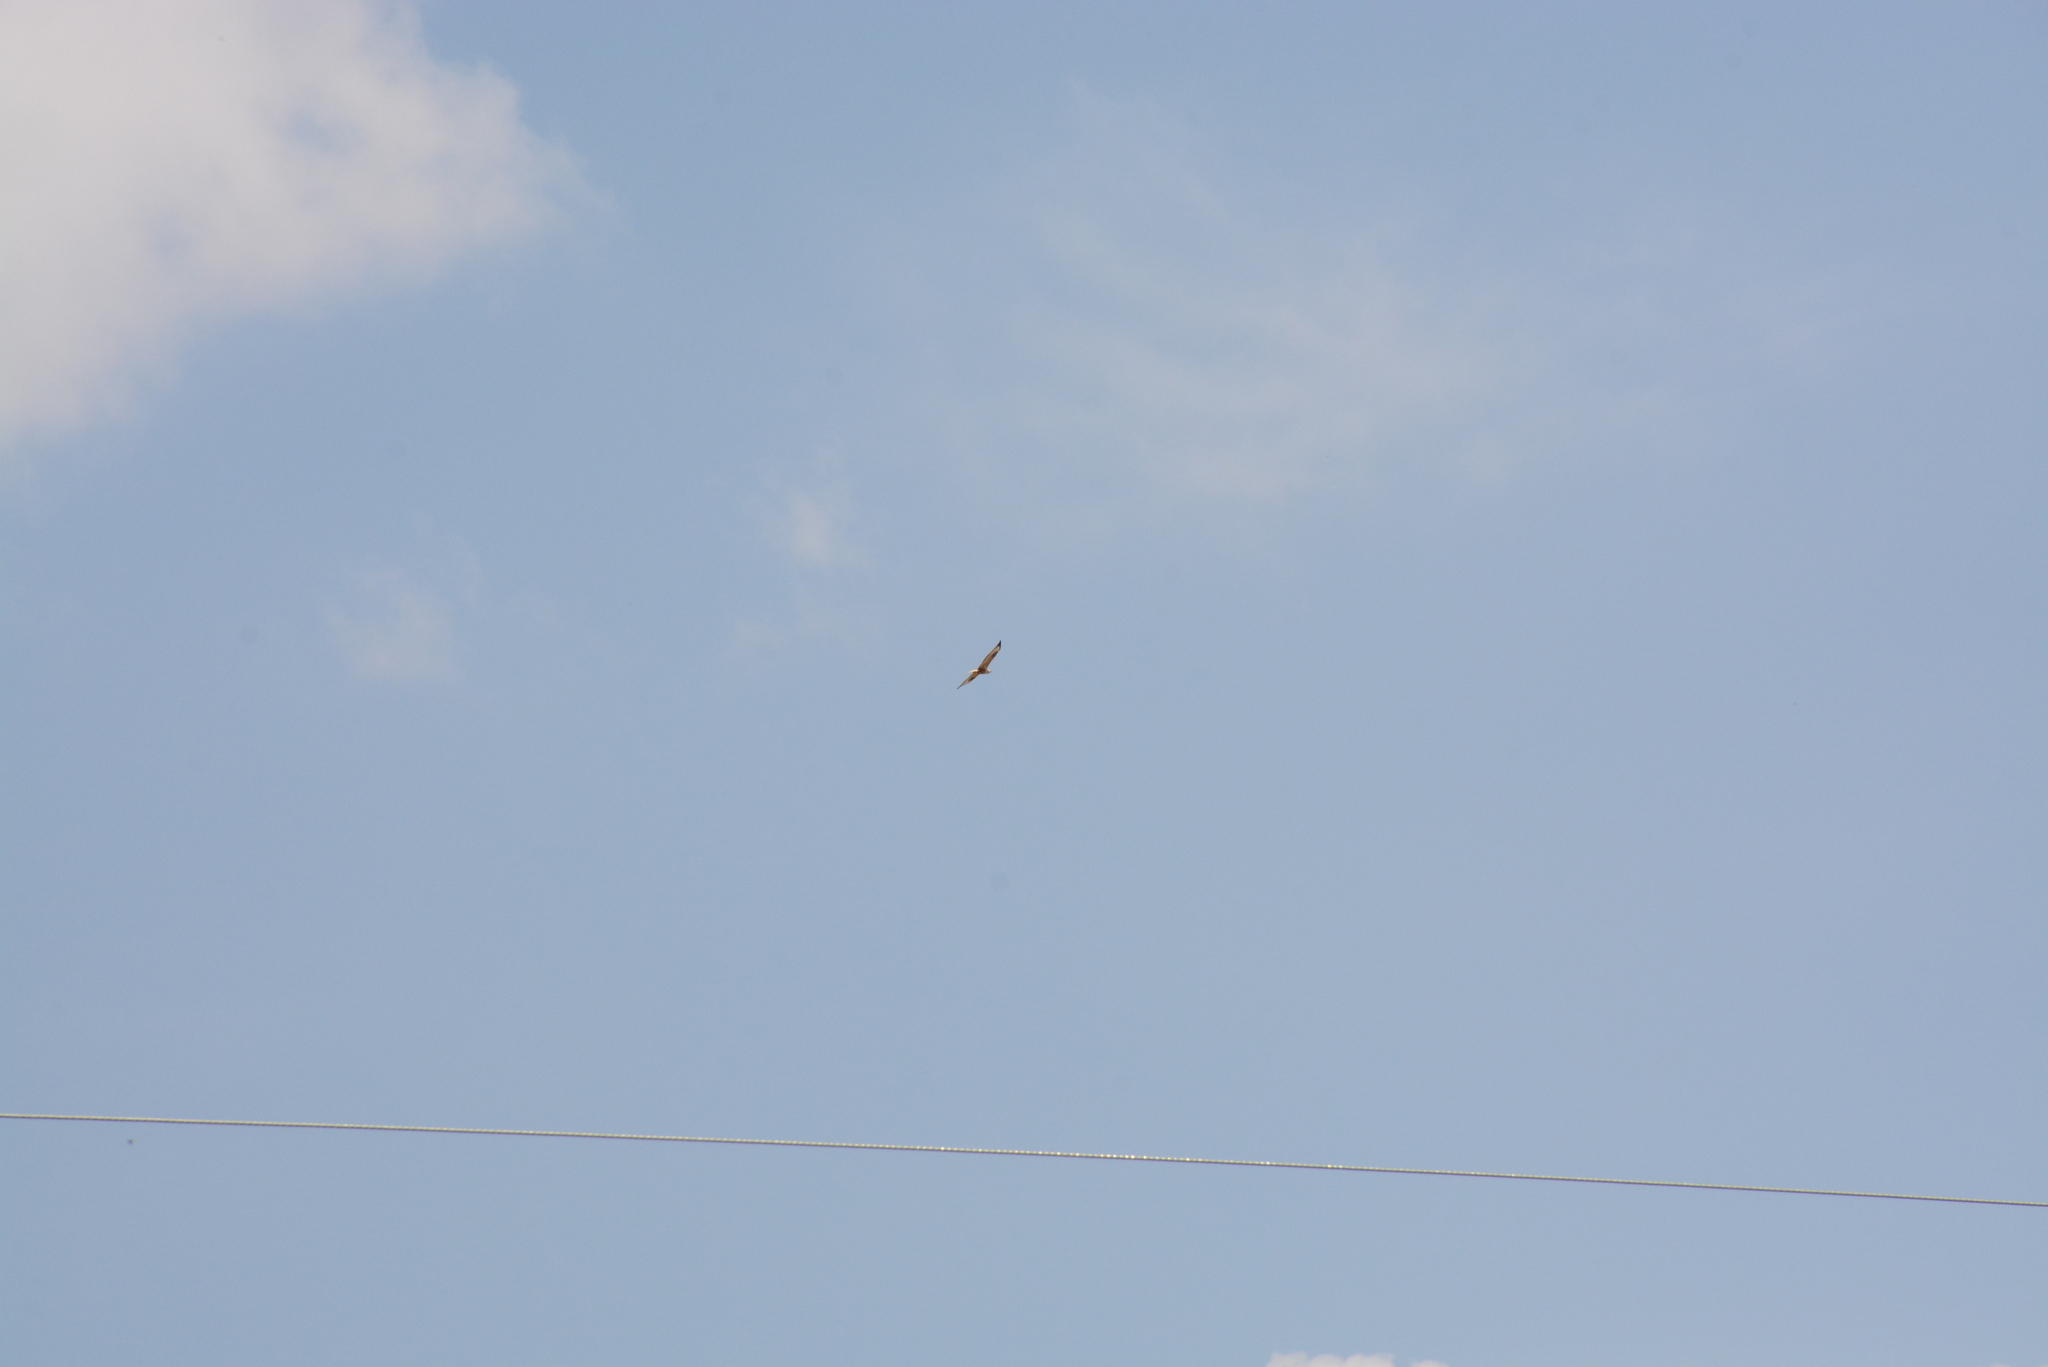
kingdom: Animalia
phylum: Chordata
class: Aves
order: Accipitriformes
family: Accipitridae
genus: Buteo
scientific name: Buteo rufinus
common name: Long-legged buzzard
